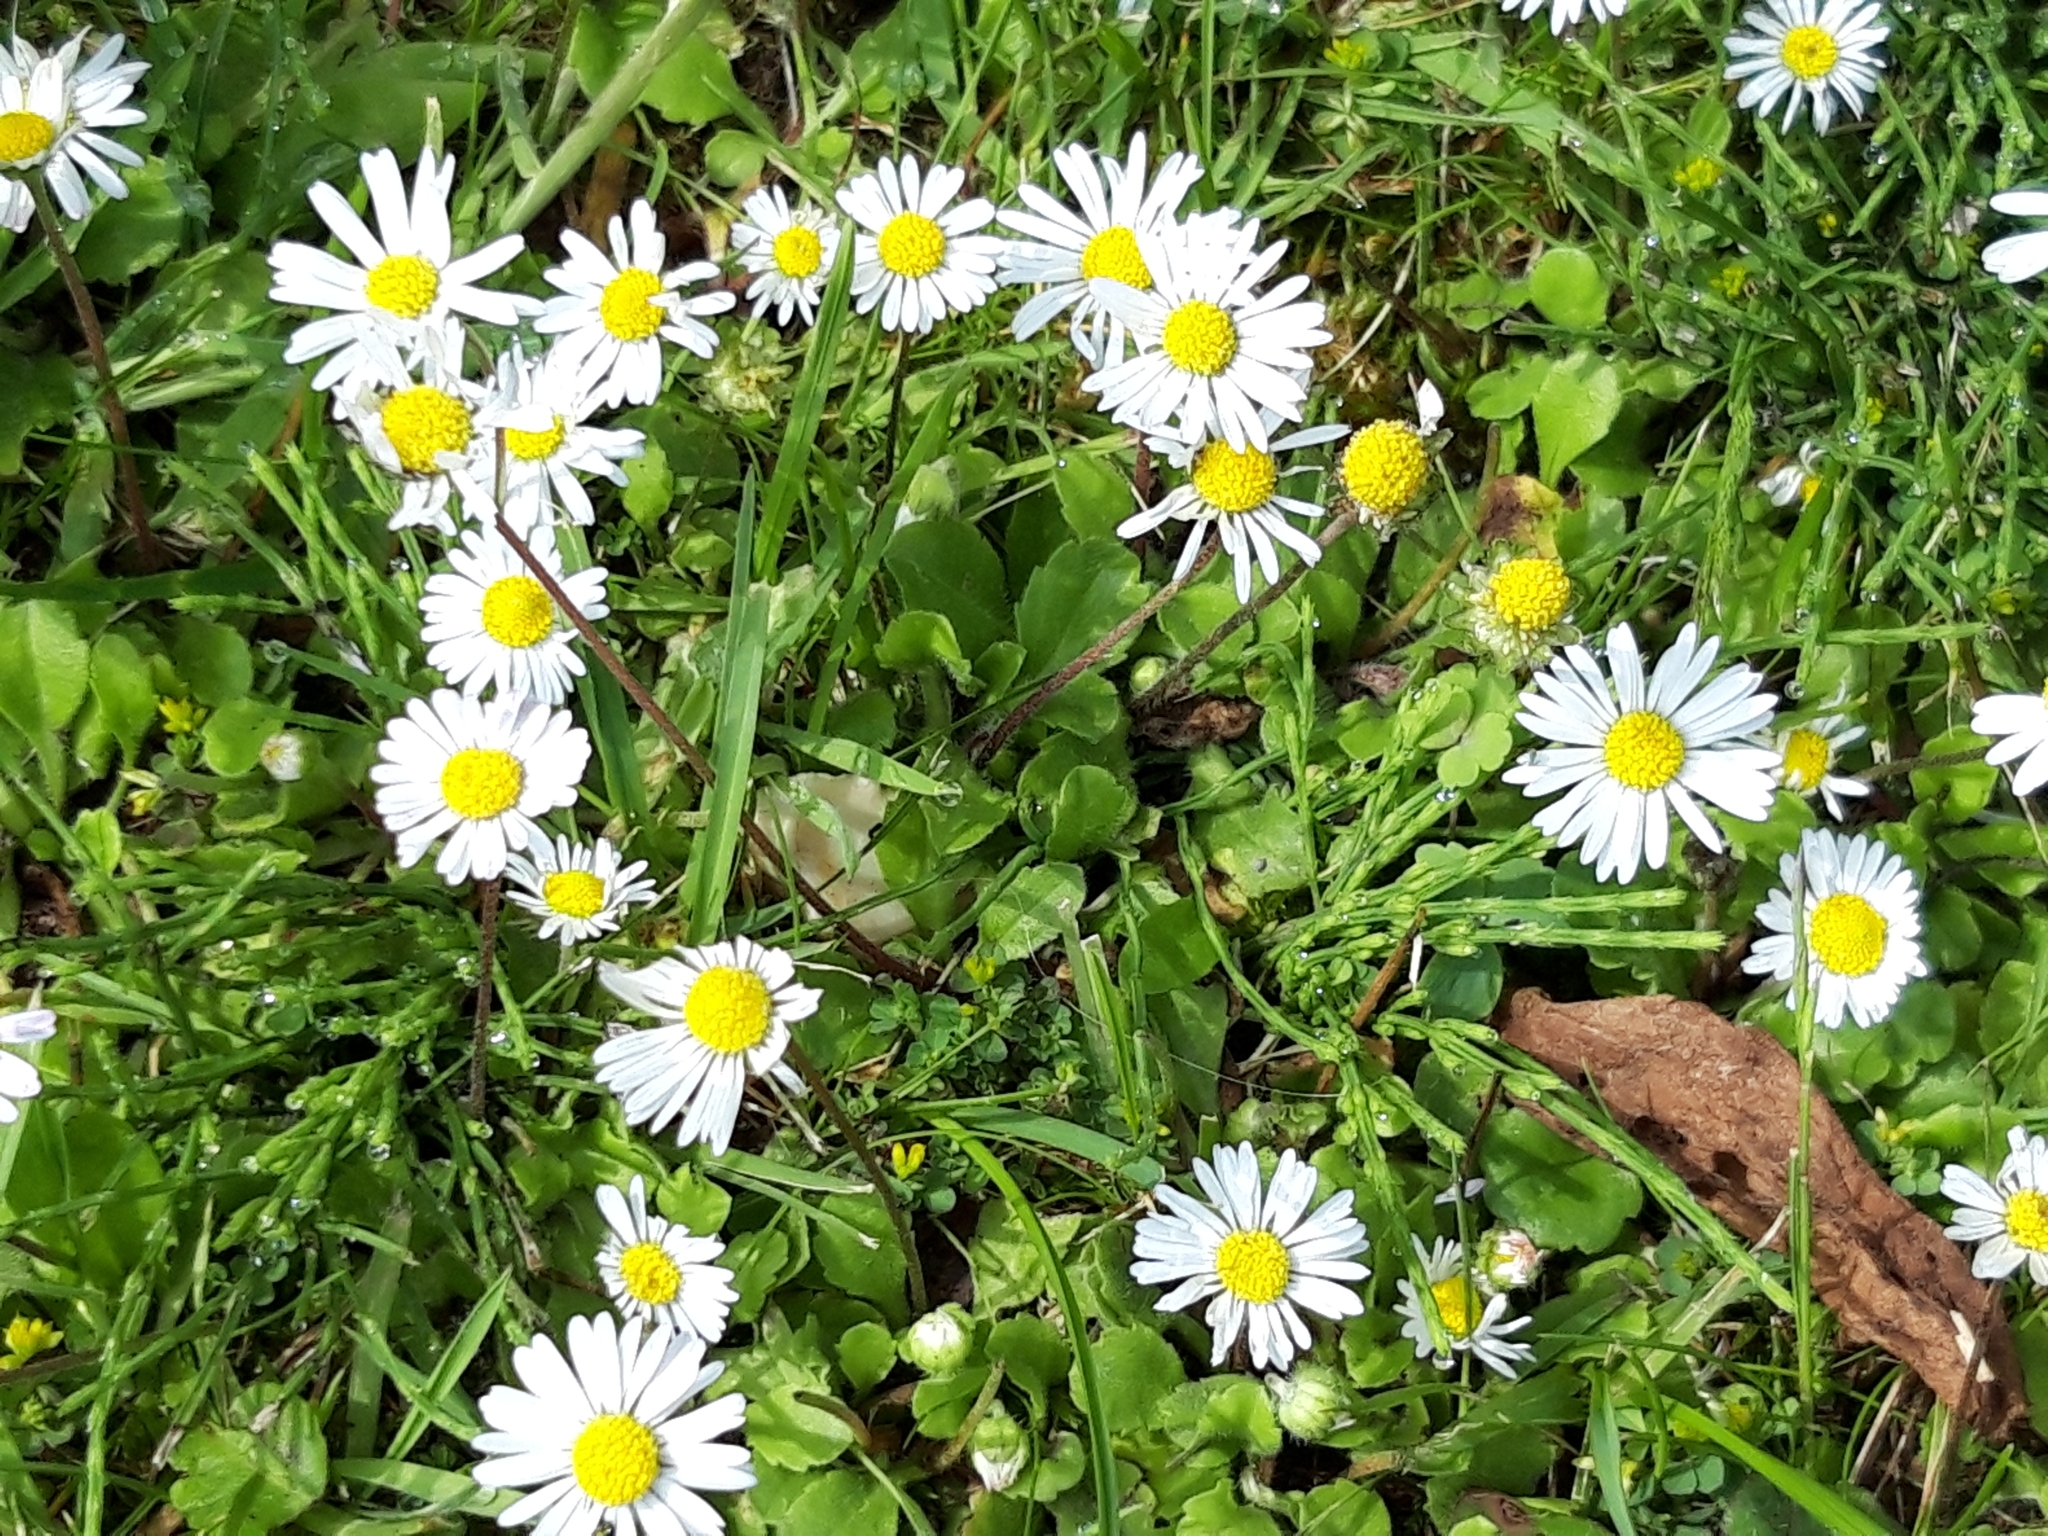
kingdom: Plantae
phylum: Tracheophyta
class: Magnoliopsida
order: Asterales
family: Asteraceae
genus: Bellis
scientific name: Bellis perennis
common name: Lawndaisy
